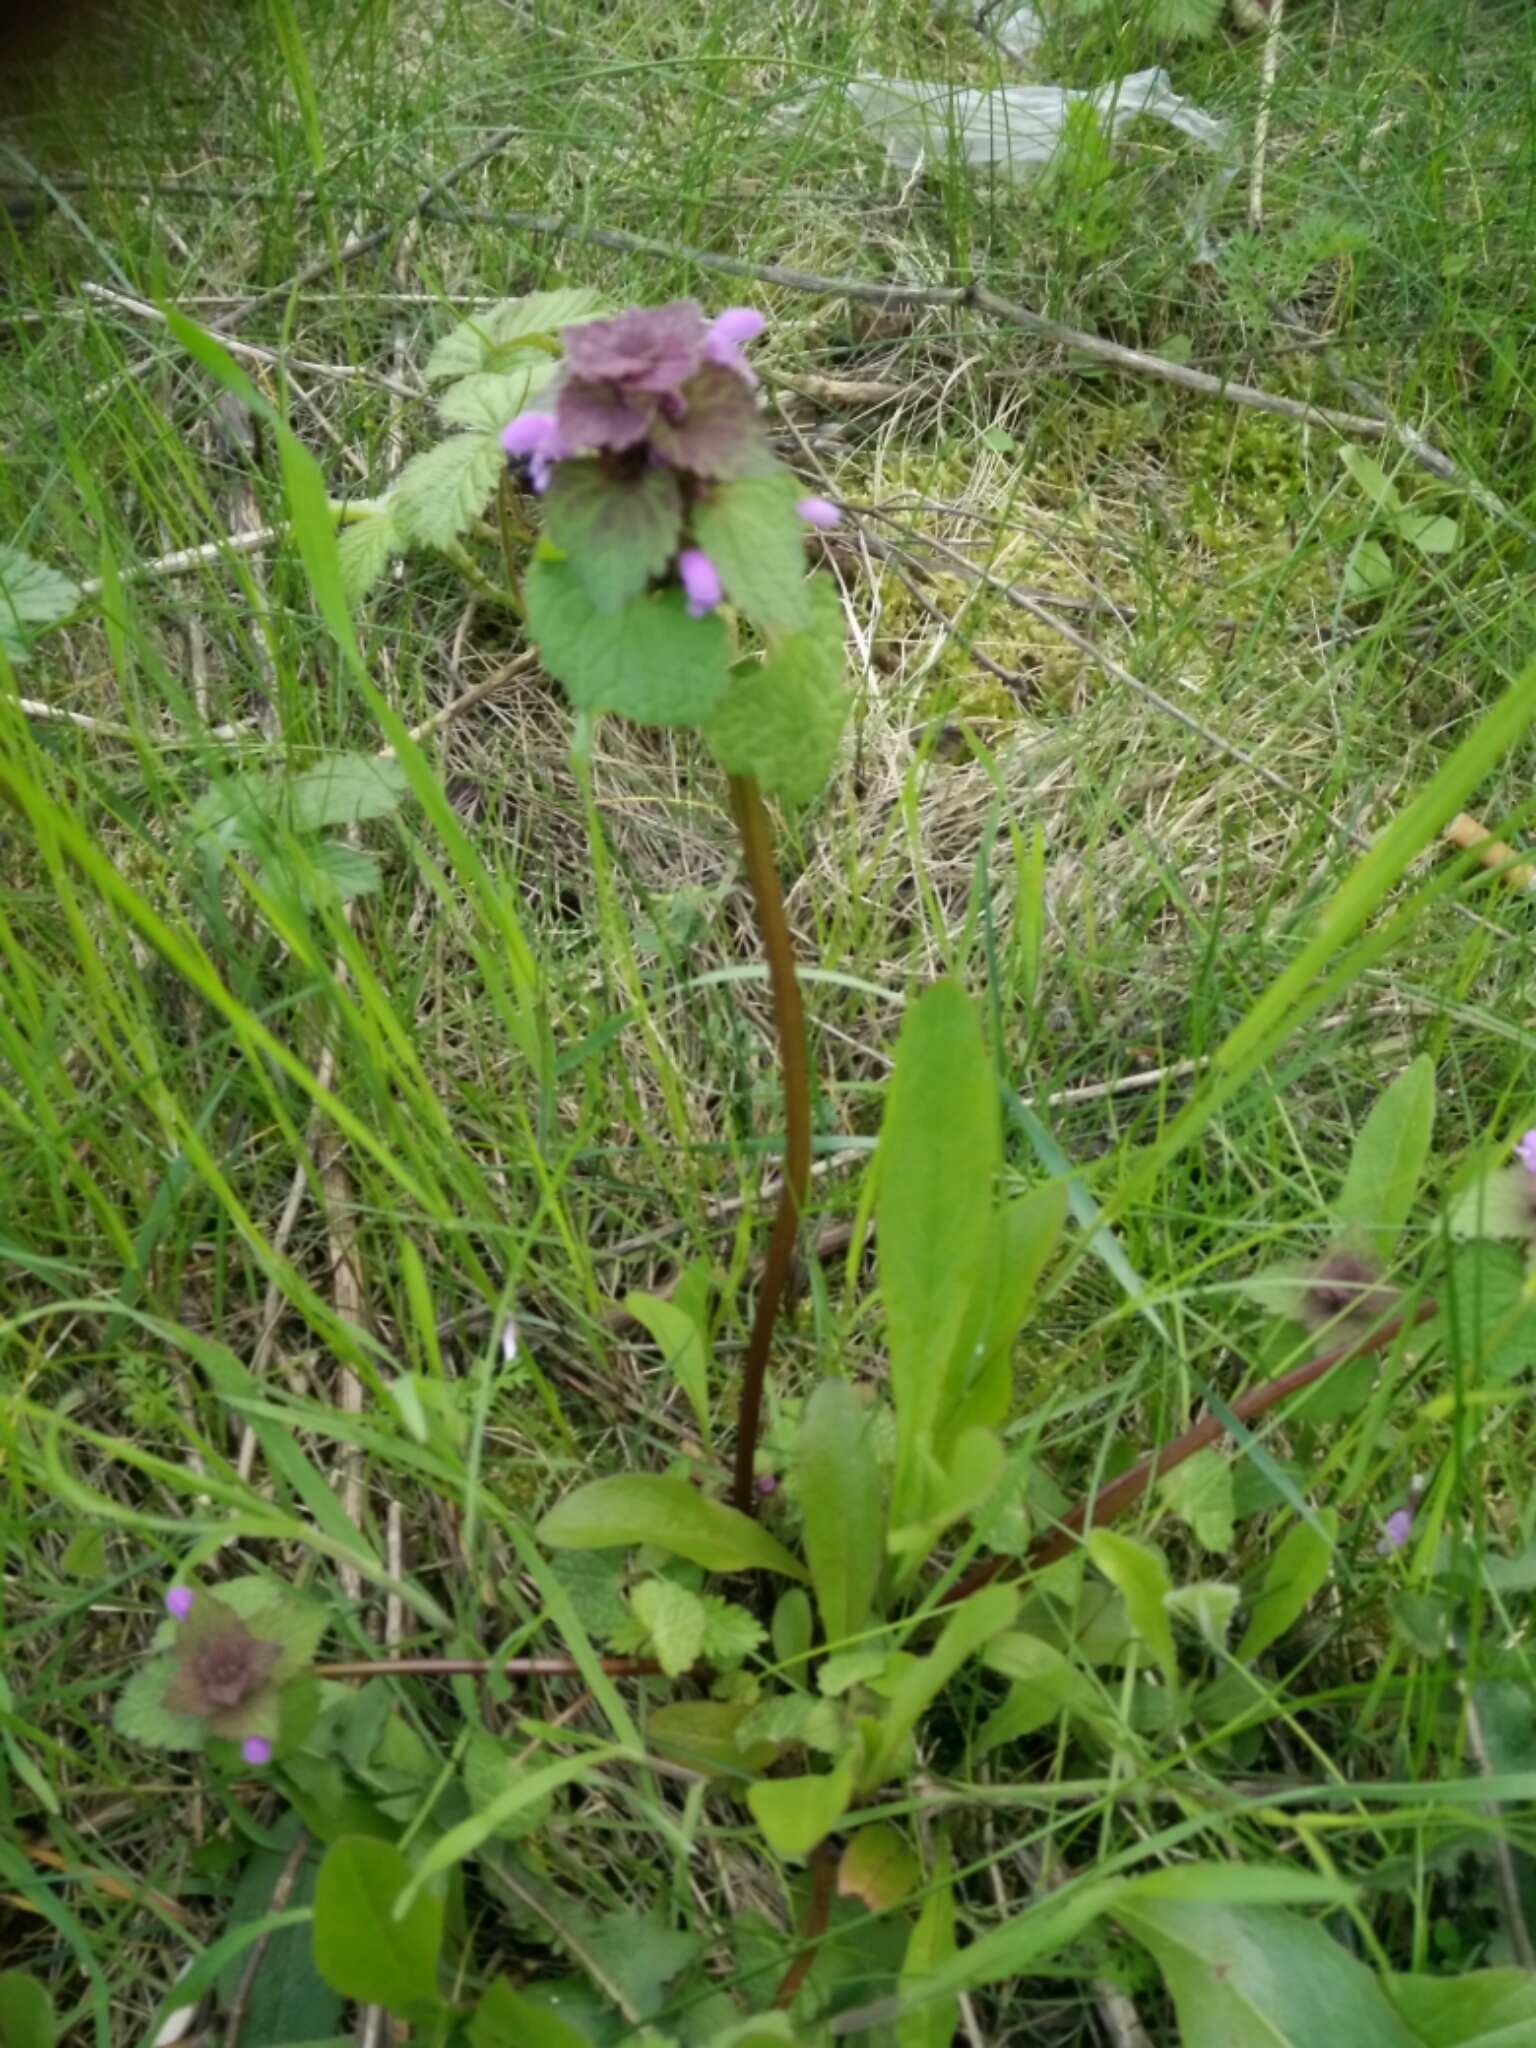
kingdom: Plantae
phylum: Tracheophyta
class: Magnoliopsida
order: Lamiales
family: Lamiaceae
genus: Lamium
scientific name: Lamium purpureum
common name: Red dead-nettle
